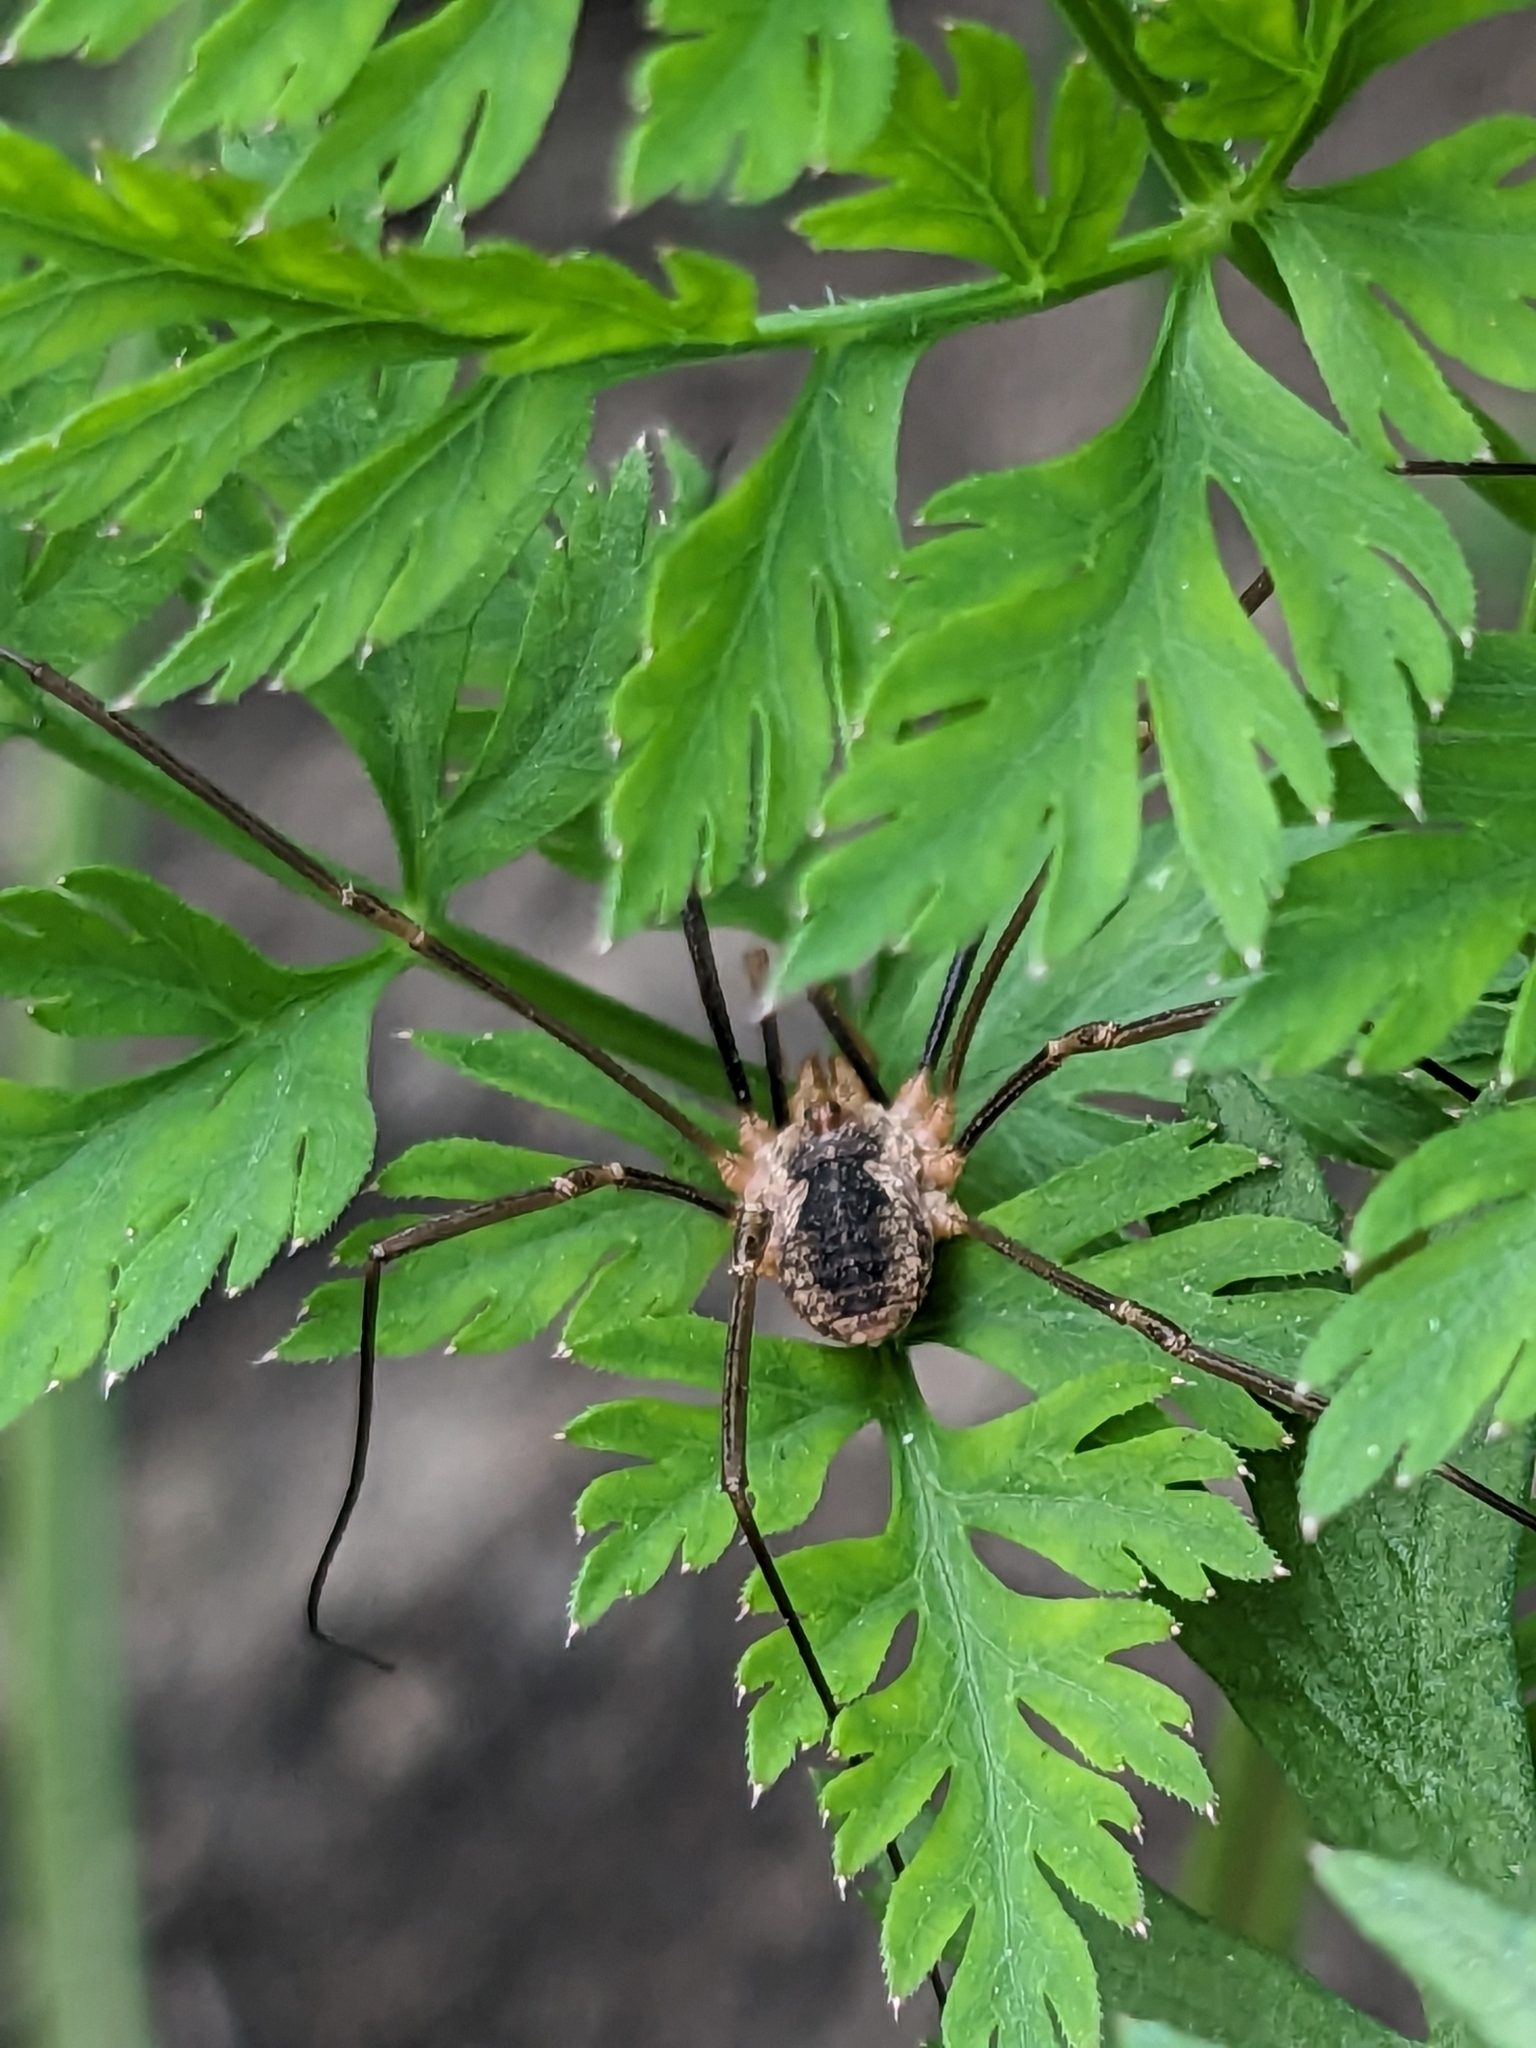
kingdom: Animalia
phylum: Arthropoda
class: Arachnida
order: Opiliones
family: Phalangiidae
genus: Phalangium
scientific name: Phalangium opilio
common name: Daddy longleg
